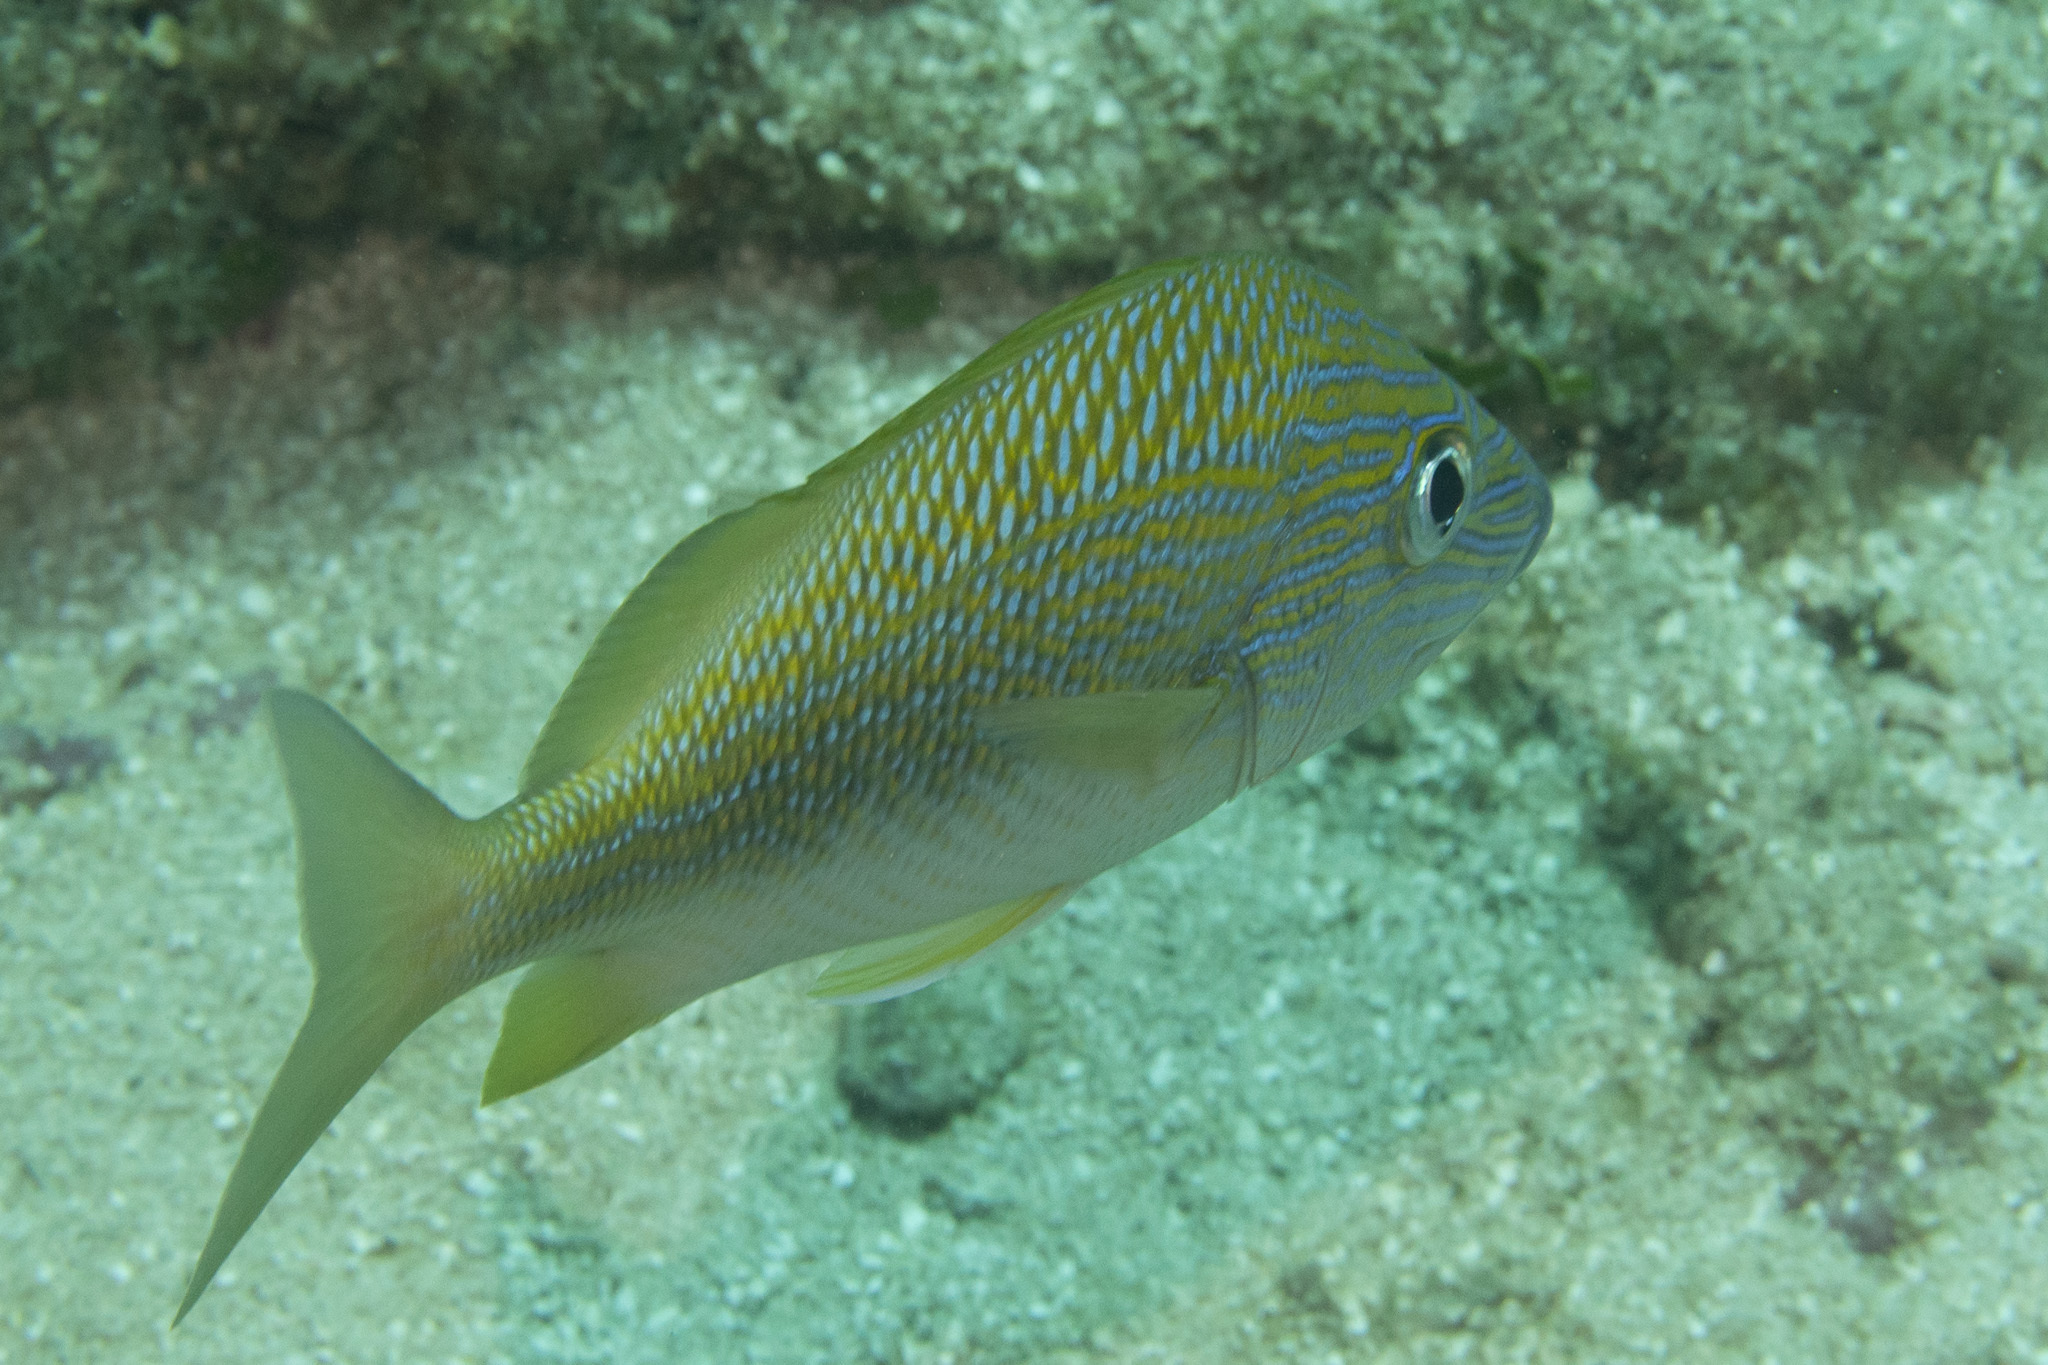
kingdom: Animalia
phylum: Chordata
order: Perciformes
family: Haemulidae
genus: Haemulon
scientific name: Haemulon plumierii
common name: White grunt
